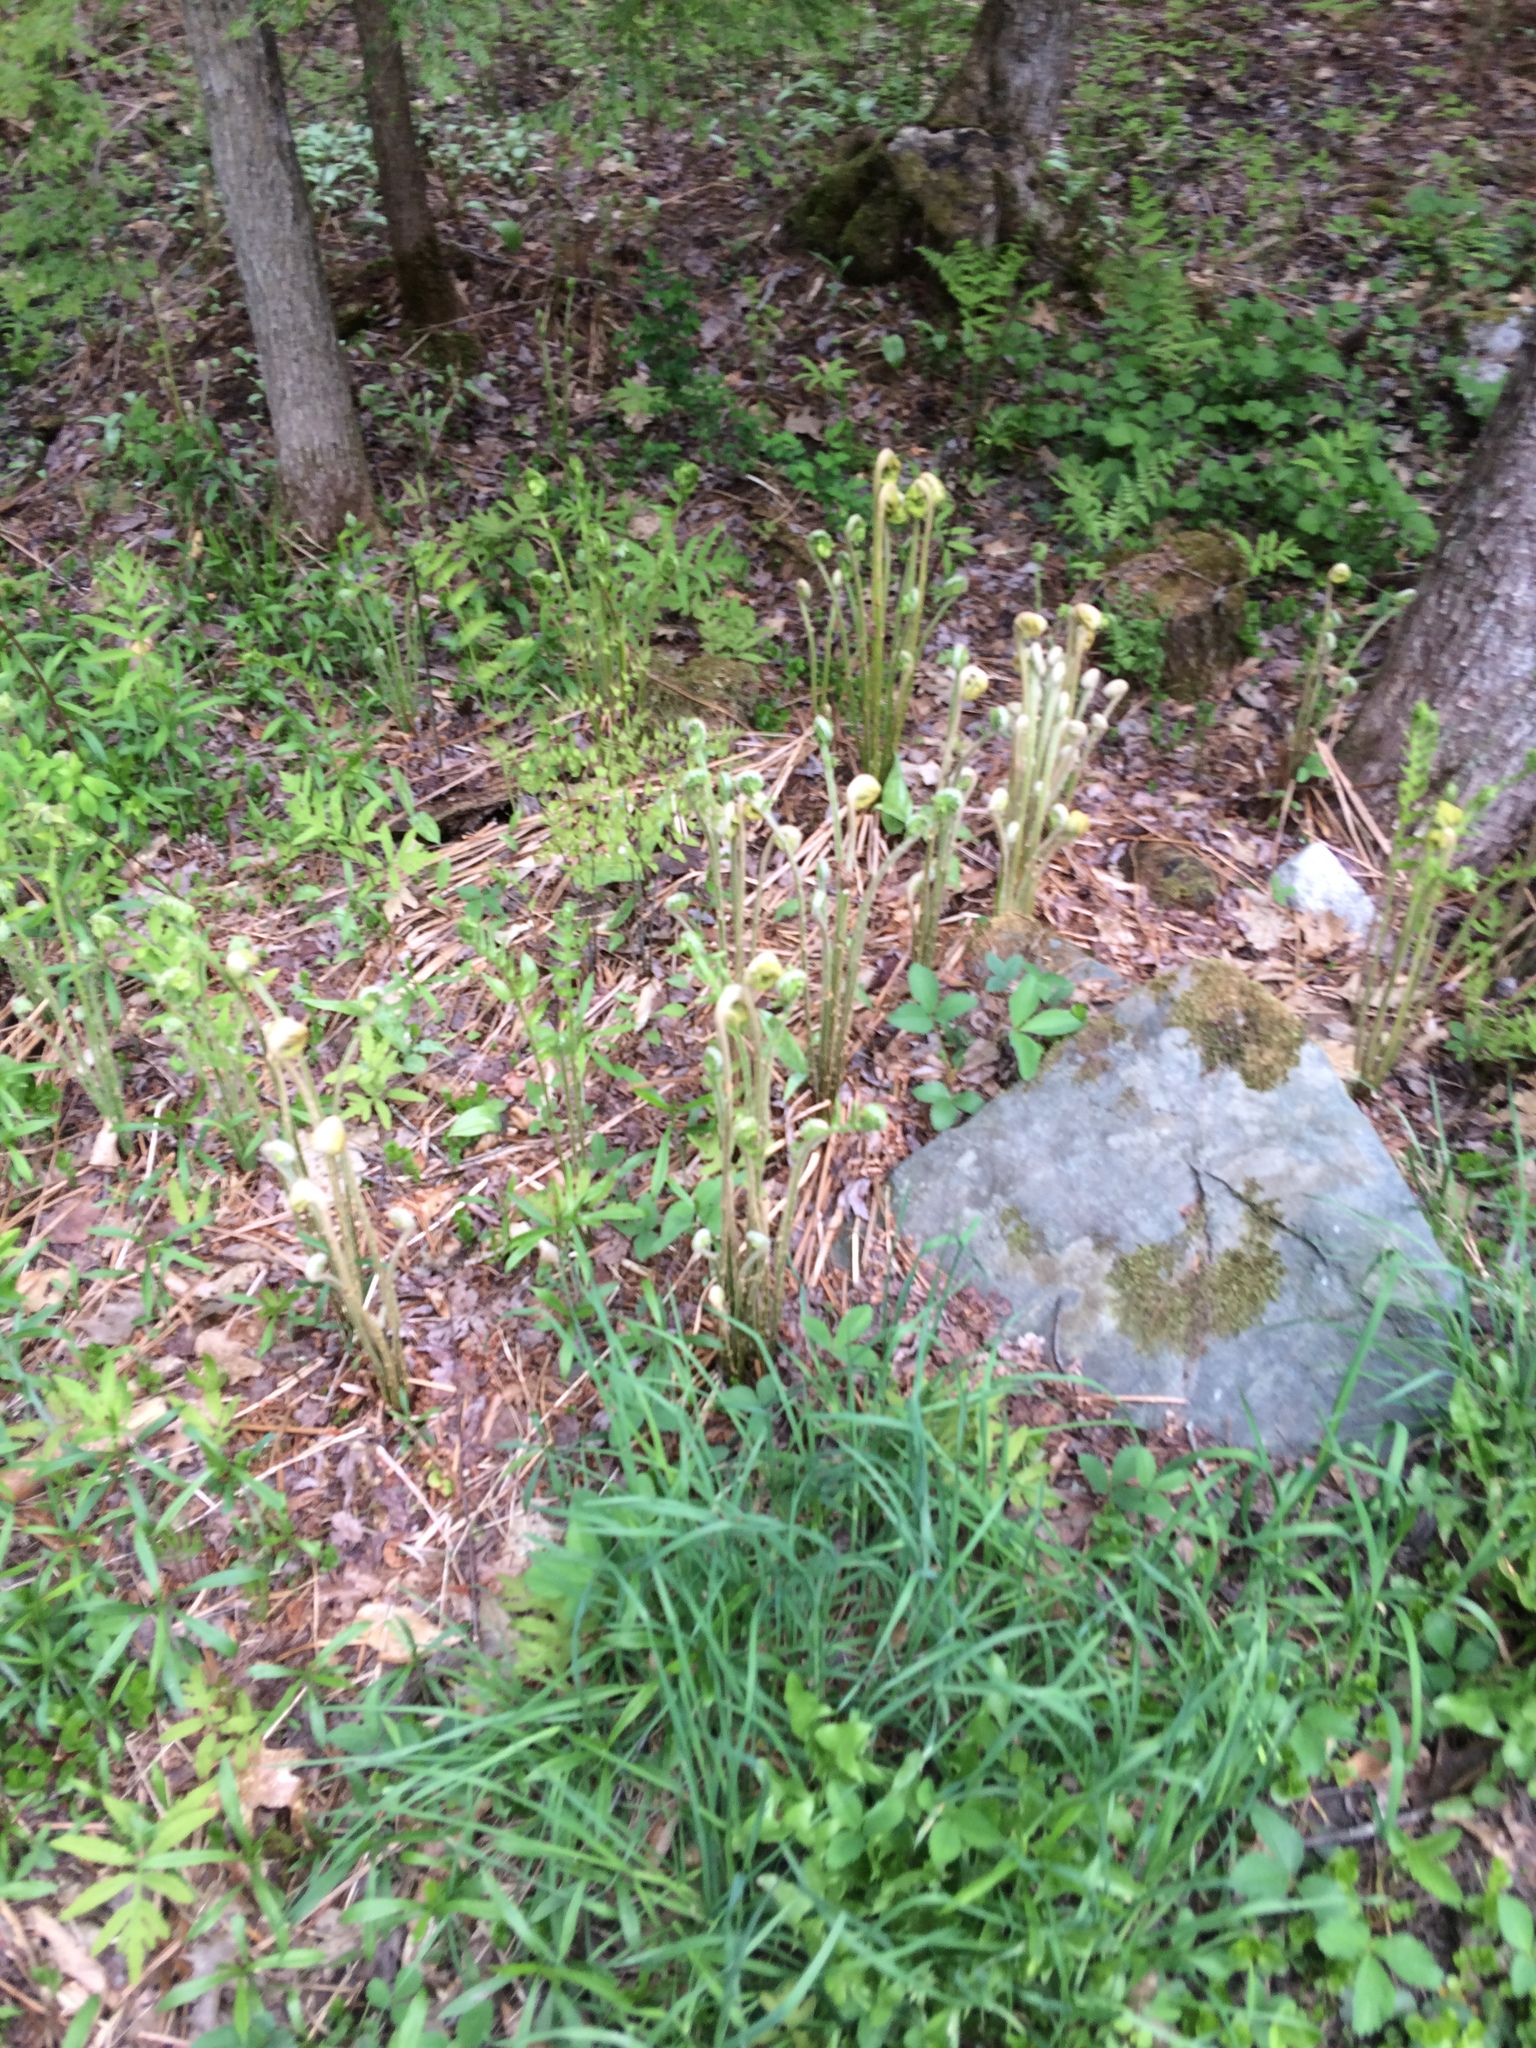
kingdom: Plantae
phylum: Tracheophyta
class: Polypodiopsida
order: Osmundales
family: Osmundaceae
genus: Osmundastrum
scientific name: Osmundastrum cinnamomeum
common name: Cinnamon fern
